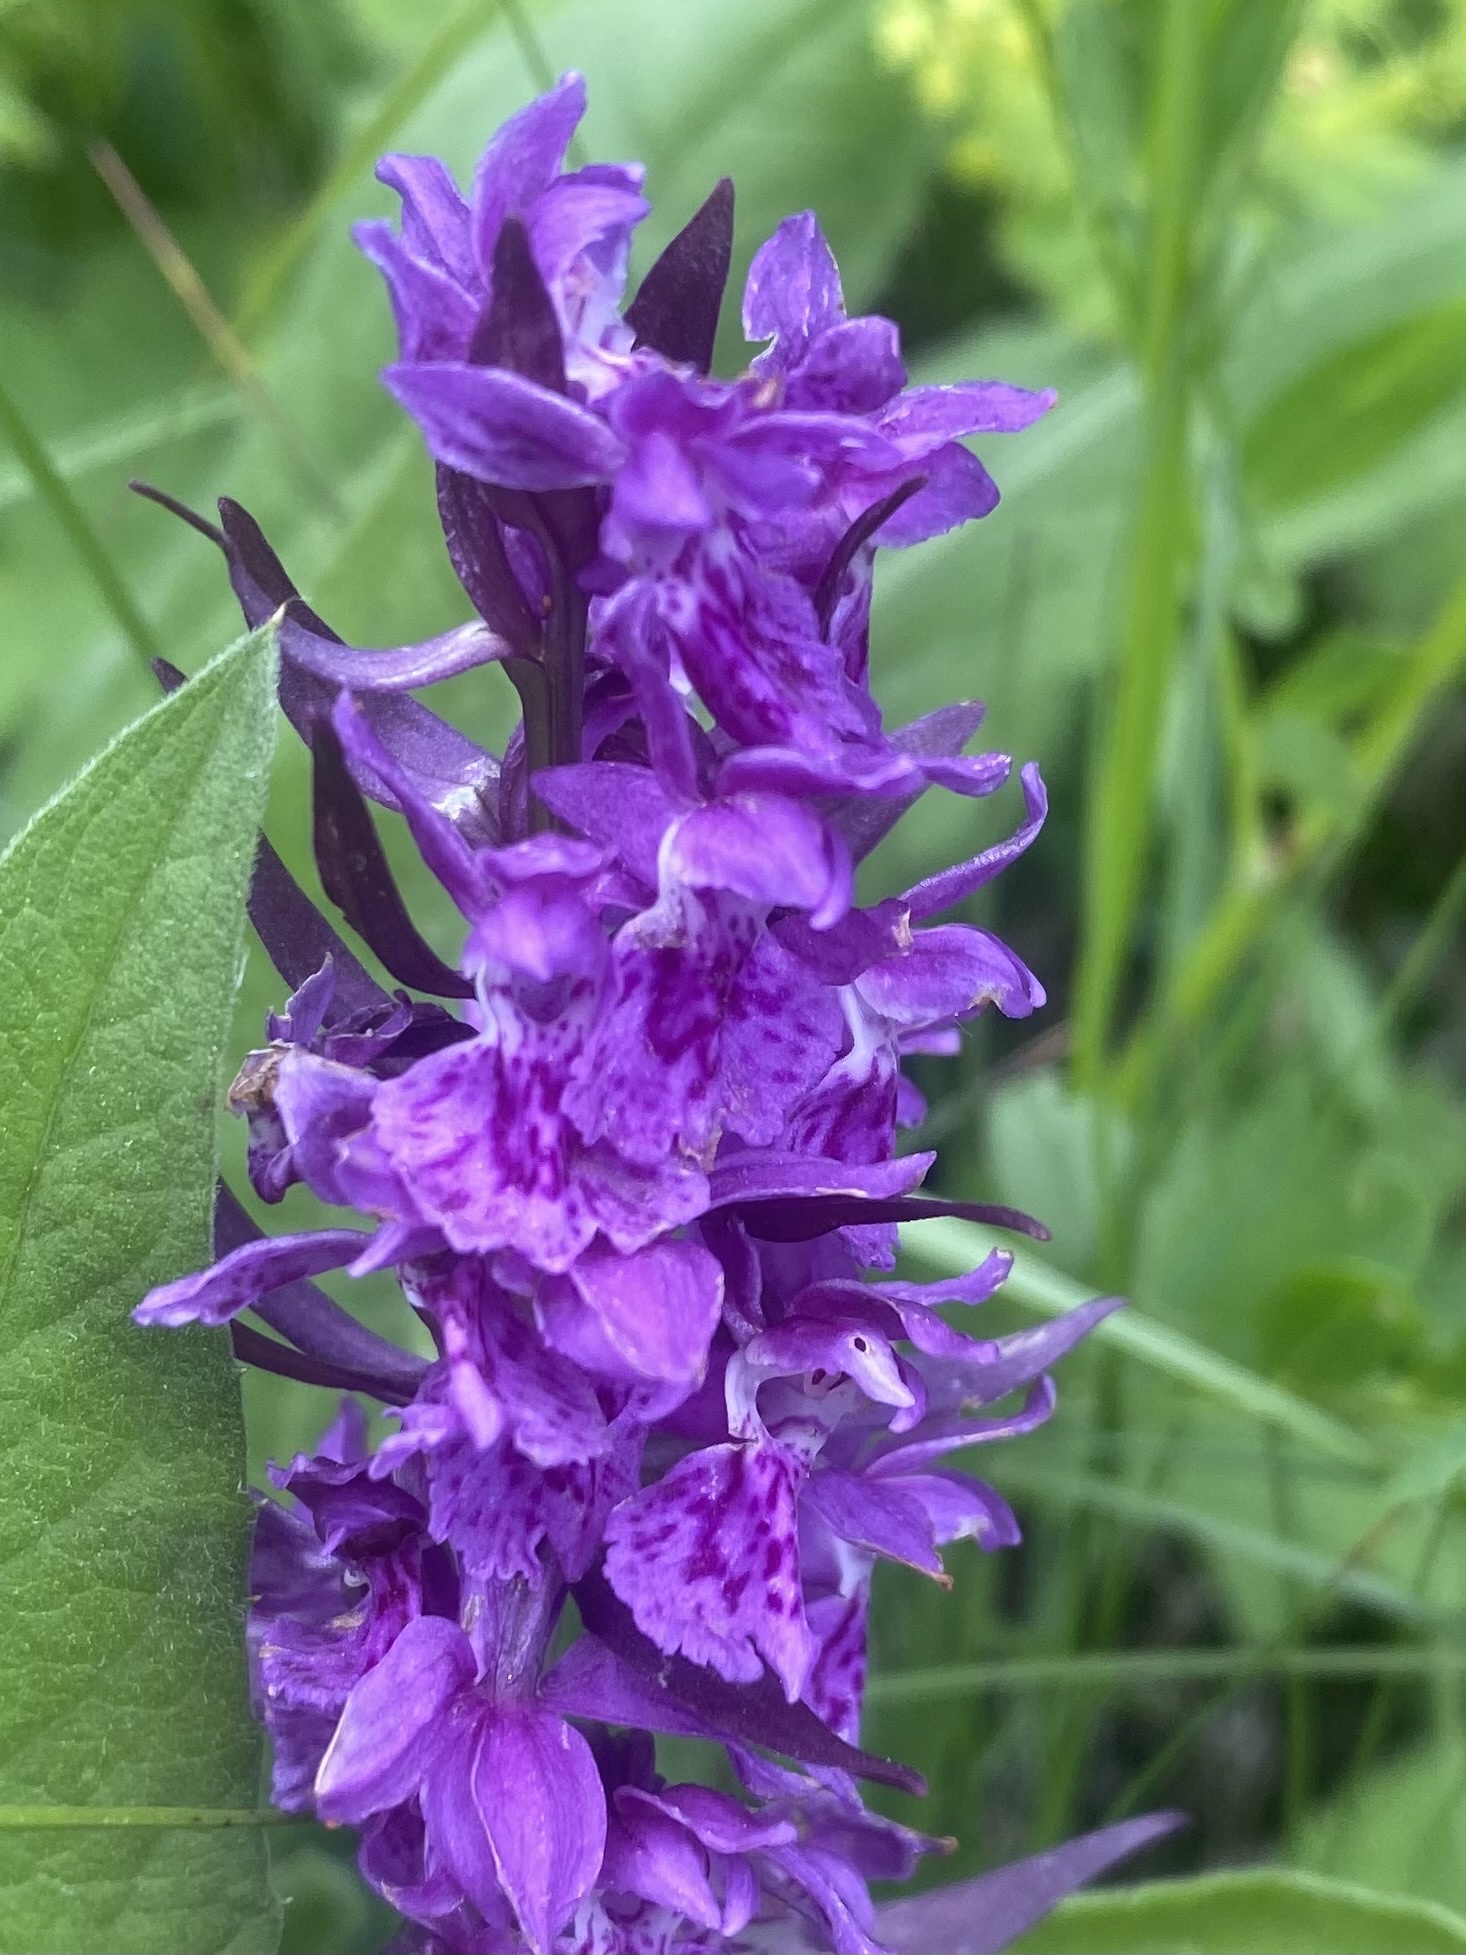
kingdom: Plantae
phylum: Tracheophyta
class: Liliopsida
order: Asparagales
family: Orchidaceae
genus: Dactylorhiza
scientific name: Dactylorhiza euxina
